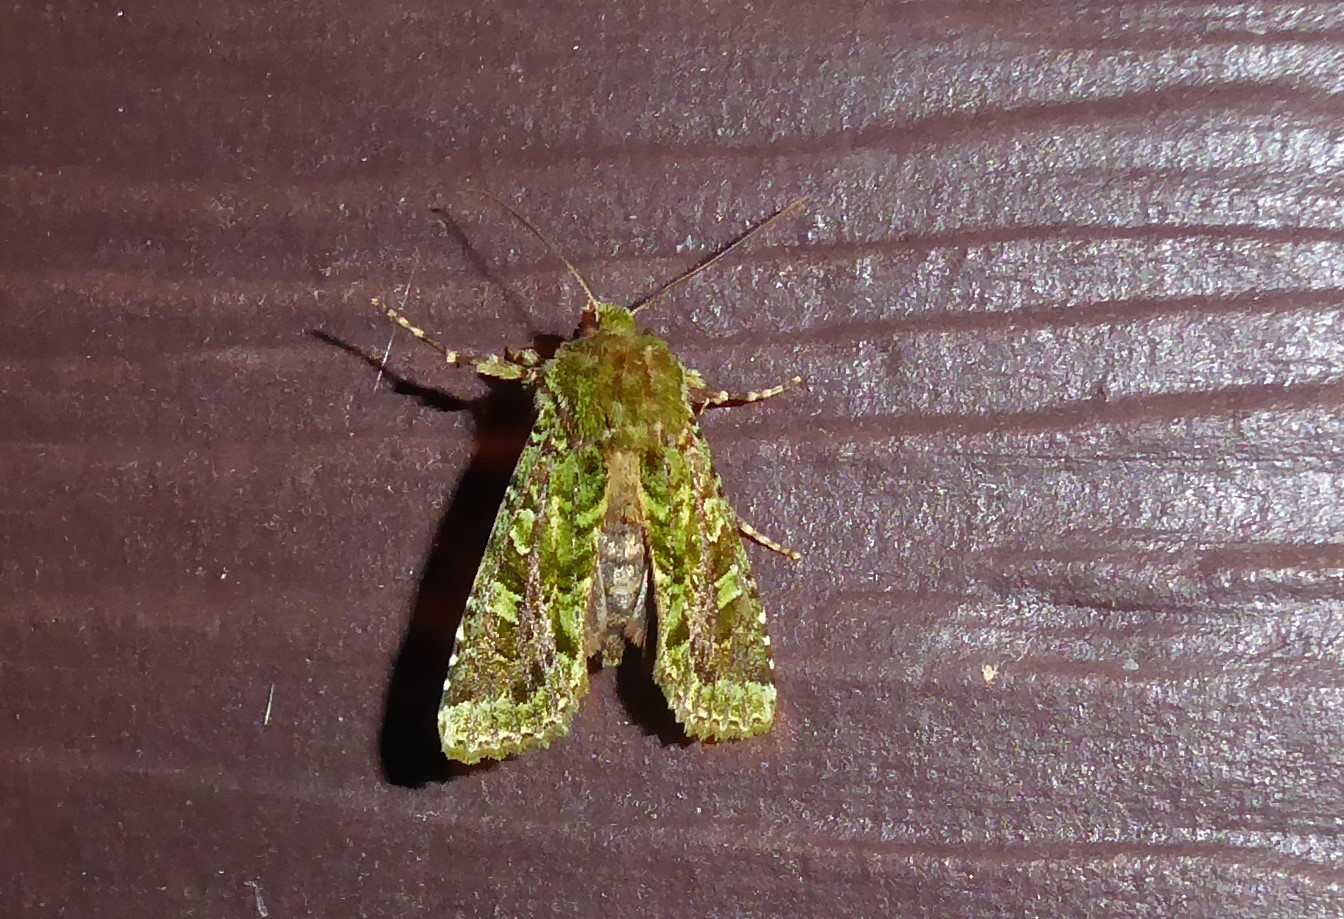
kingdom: Animalia
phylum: Arthropoda
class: Insecta
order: Lepidoptera
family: Noctuidae
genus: Feredayia
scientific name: Feredayia grammosa
